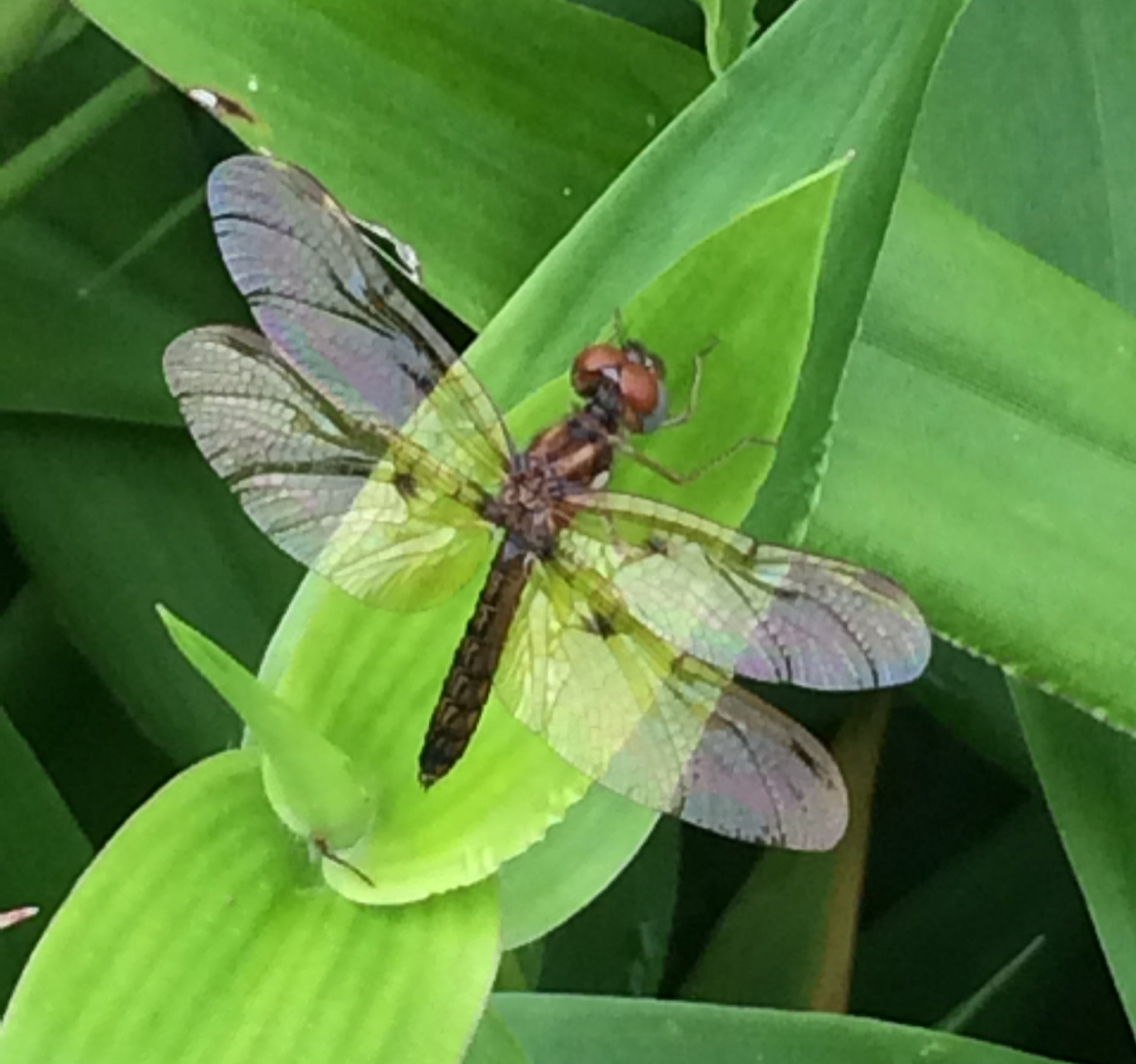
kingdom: Animalia
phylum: Arthropoda
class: Insecta
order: Odonata
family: Libellulidae
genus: Perithemis
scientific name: Perithemis tenera
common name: Eastern amberwing
